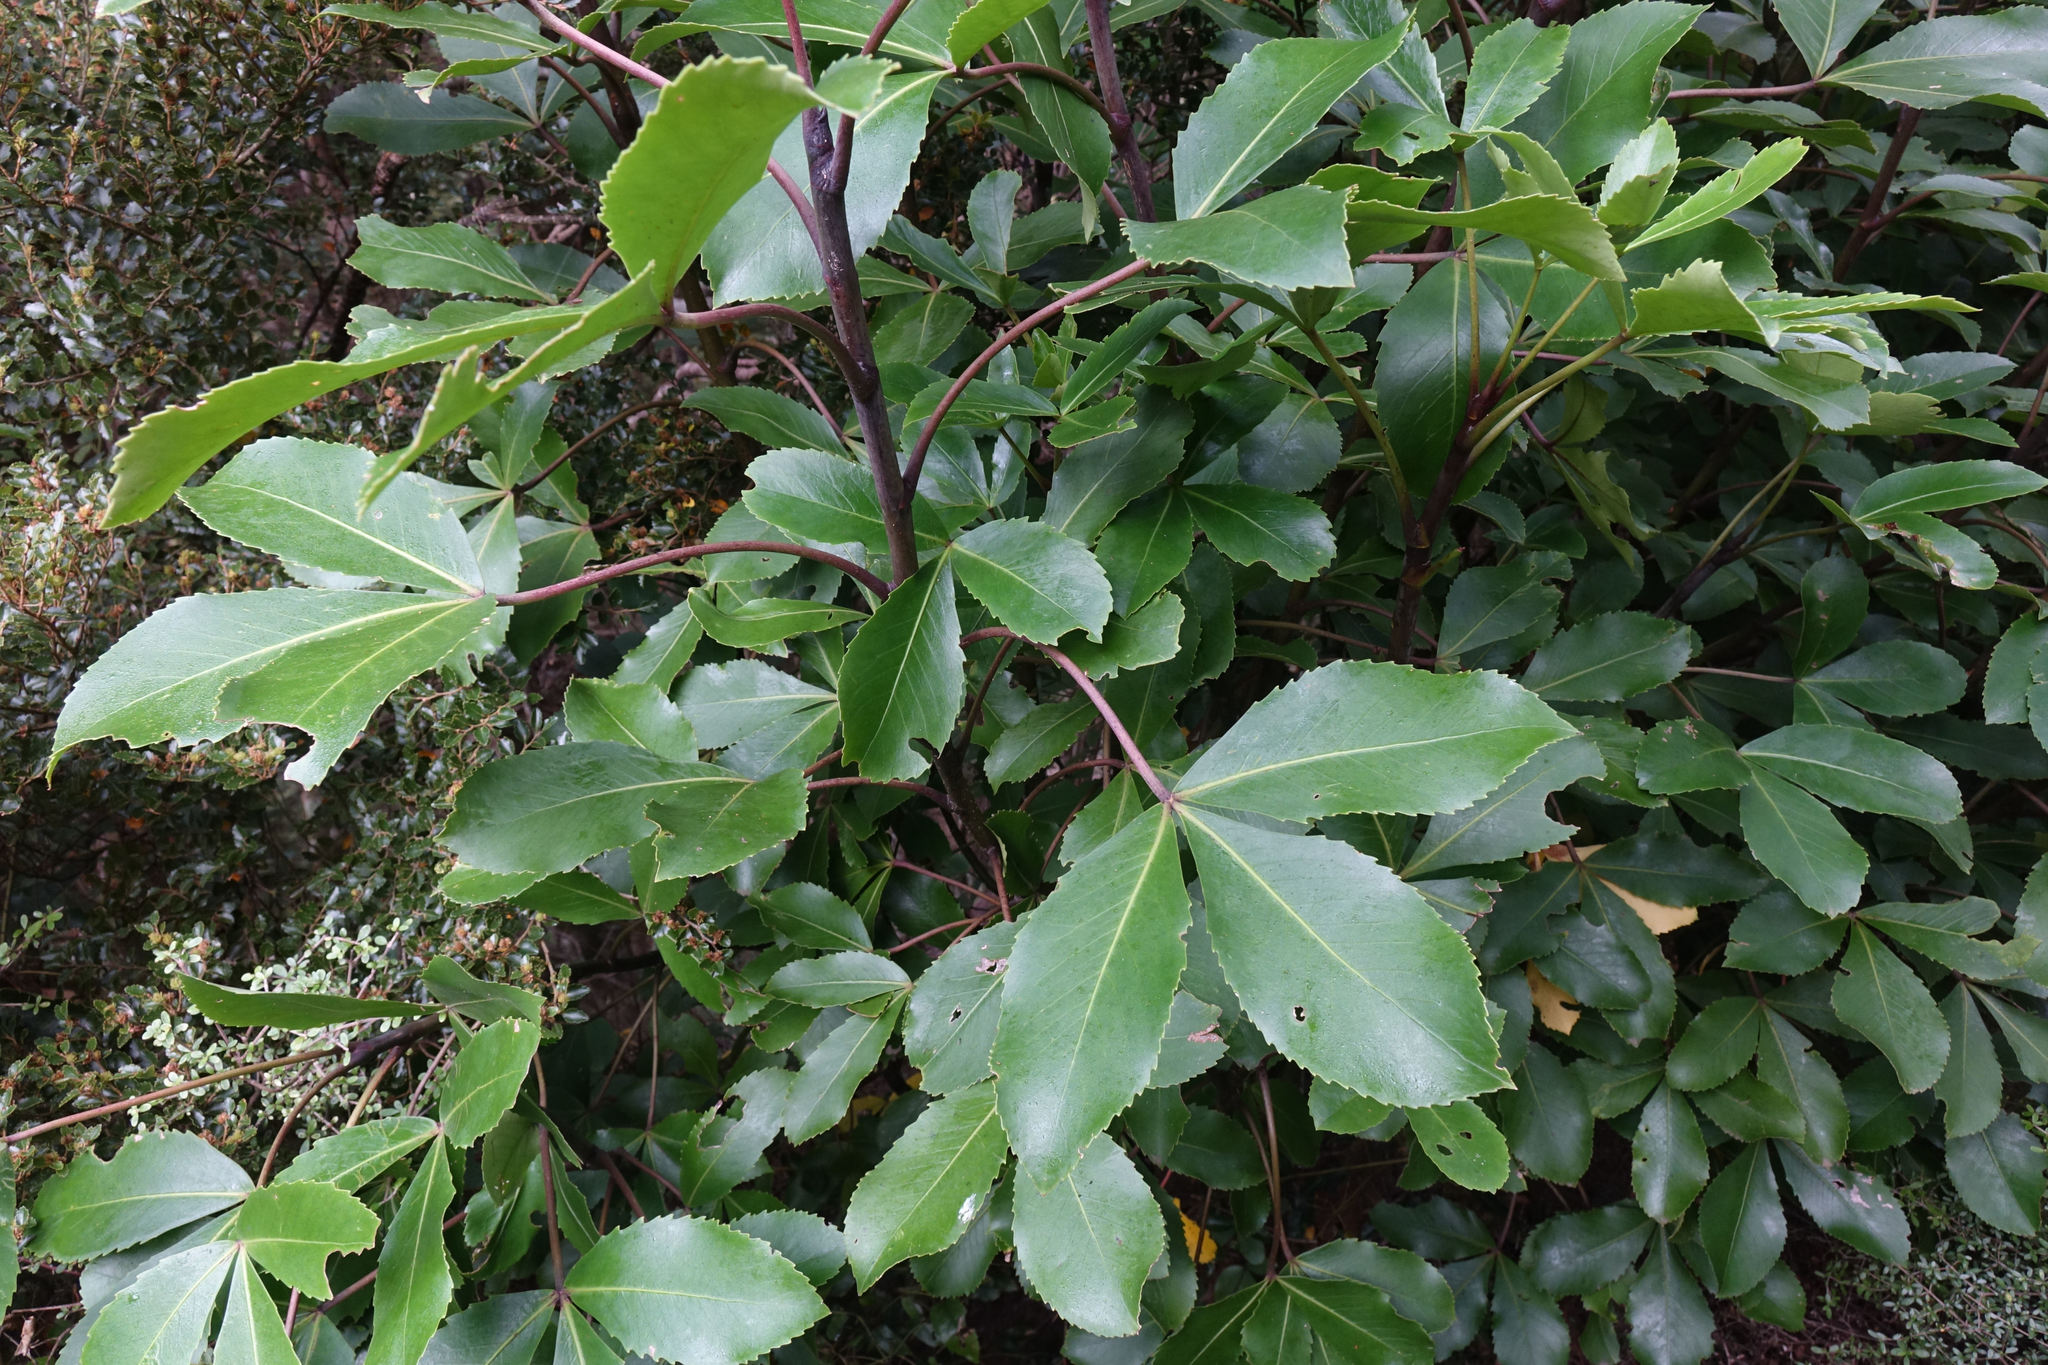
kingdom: Plantae
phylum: Tracheophyta
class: Magnoliopsida
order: Apiales
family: Araliaceae
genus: Neopanax
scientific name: Neopanax colensoi
